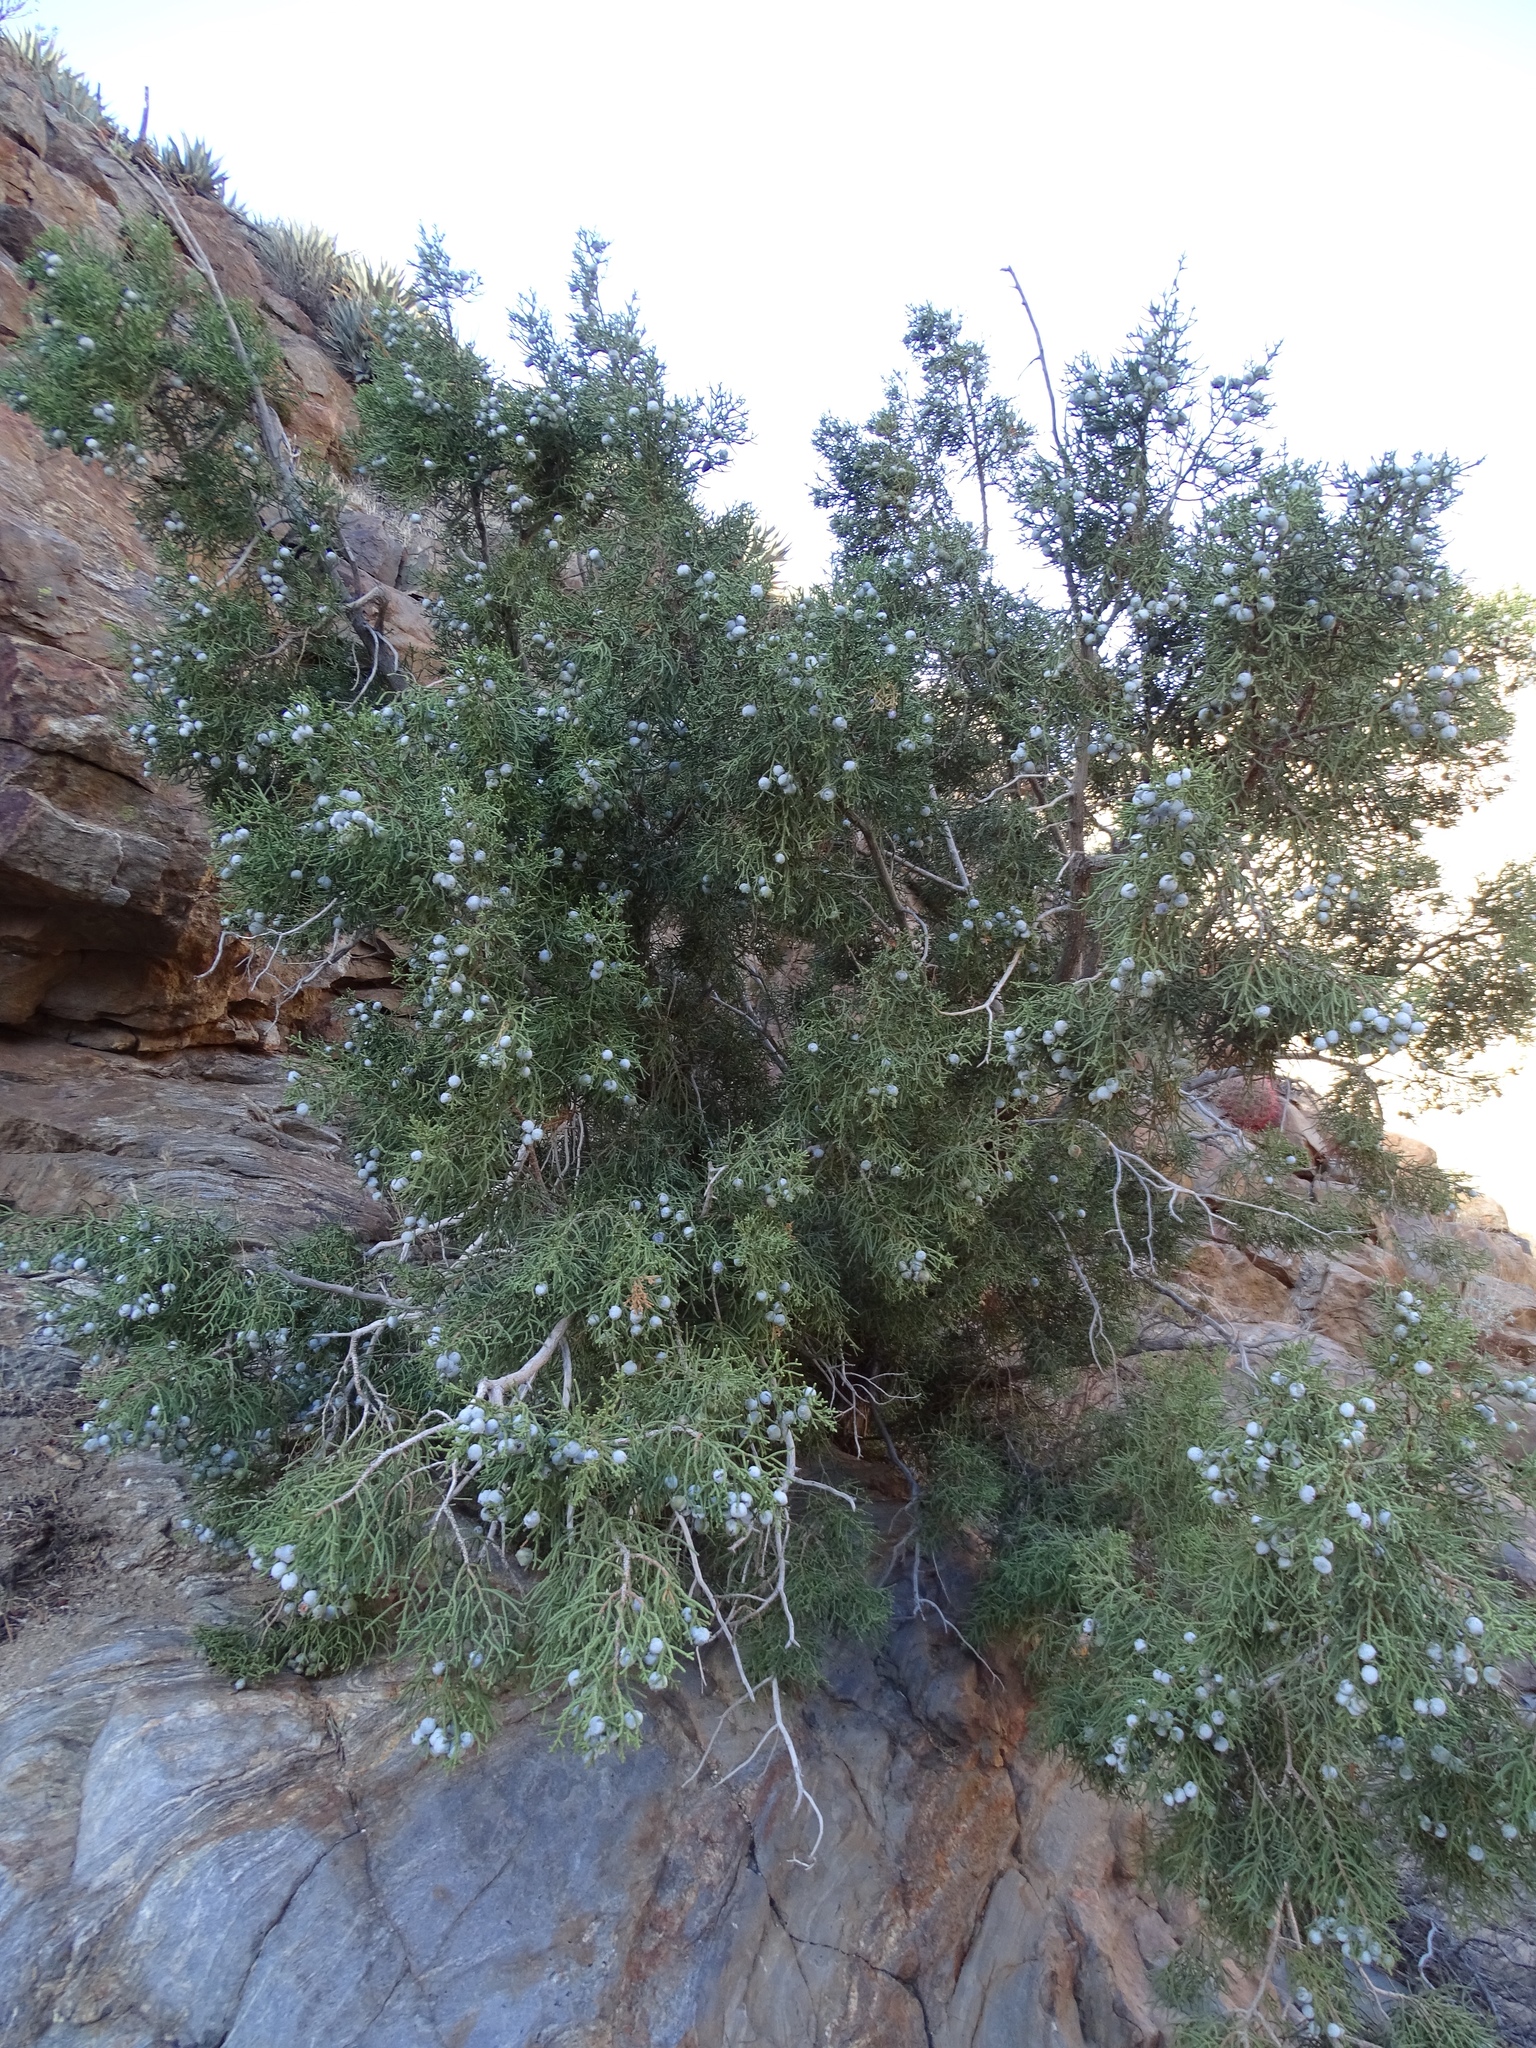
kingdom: Plantae
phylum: Tracheophyta
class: Pinopsida
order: Pinales
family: Cupressaceae
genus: Juniperus
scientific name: Juniperus californica
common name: California juniper
